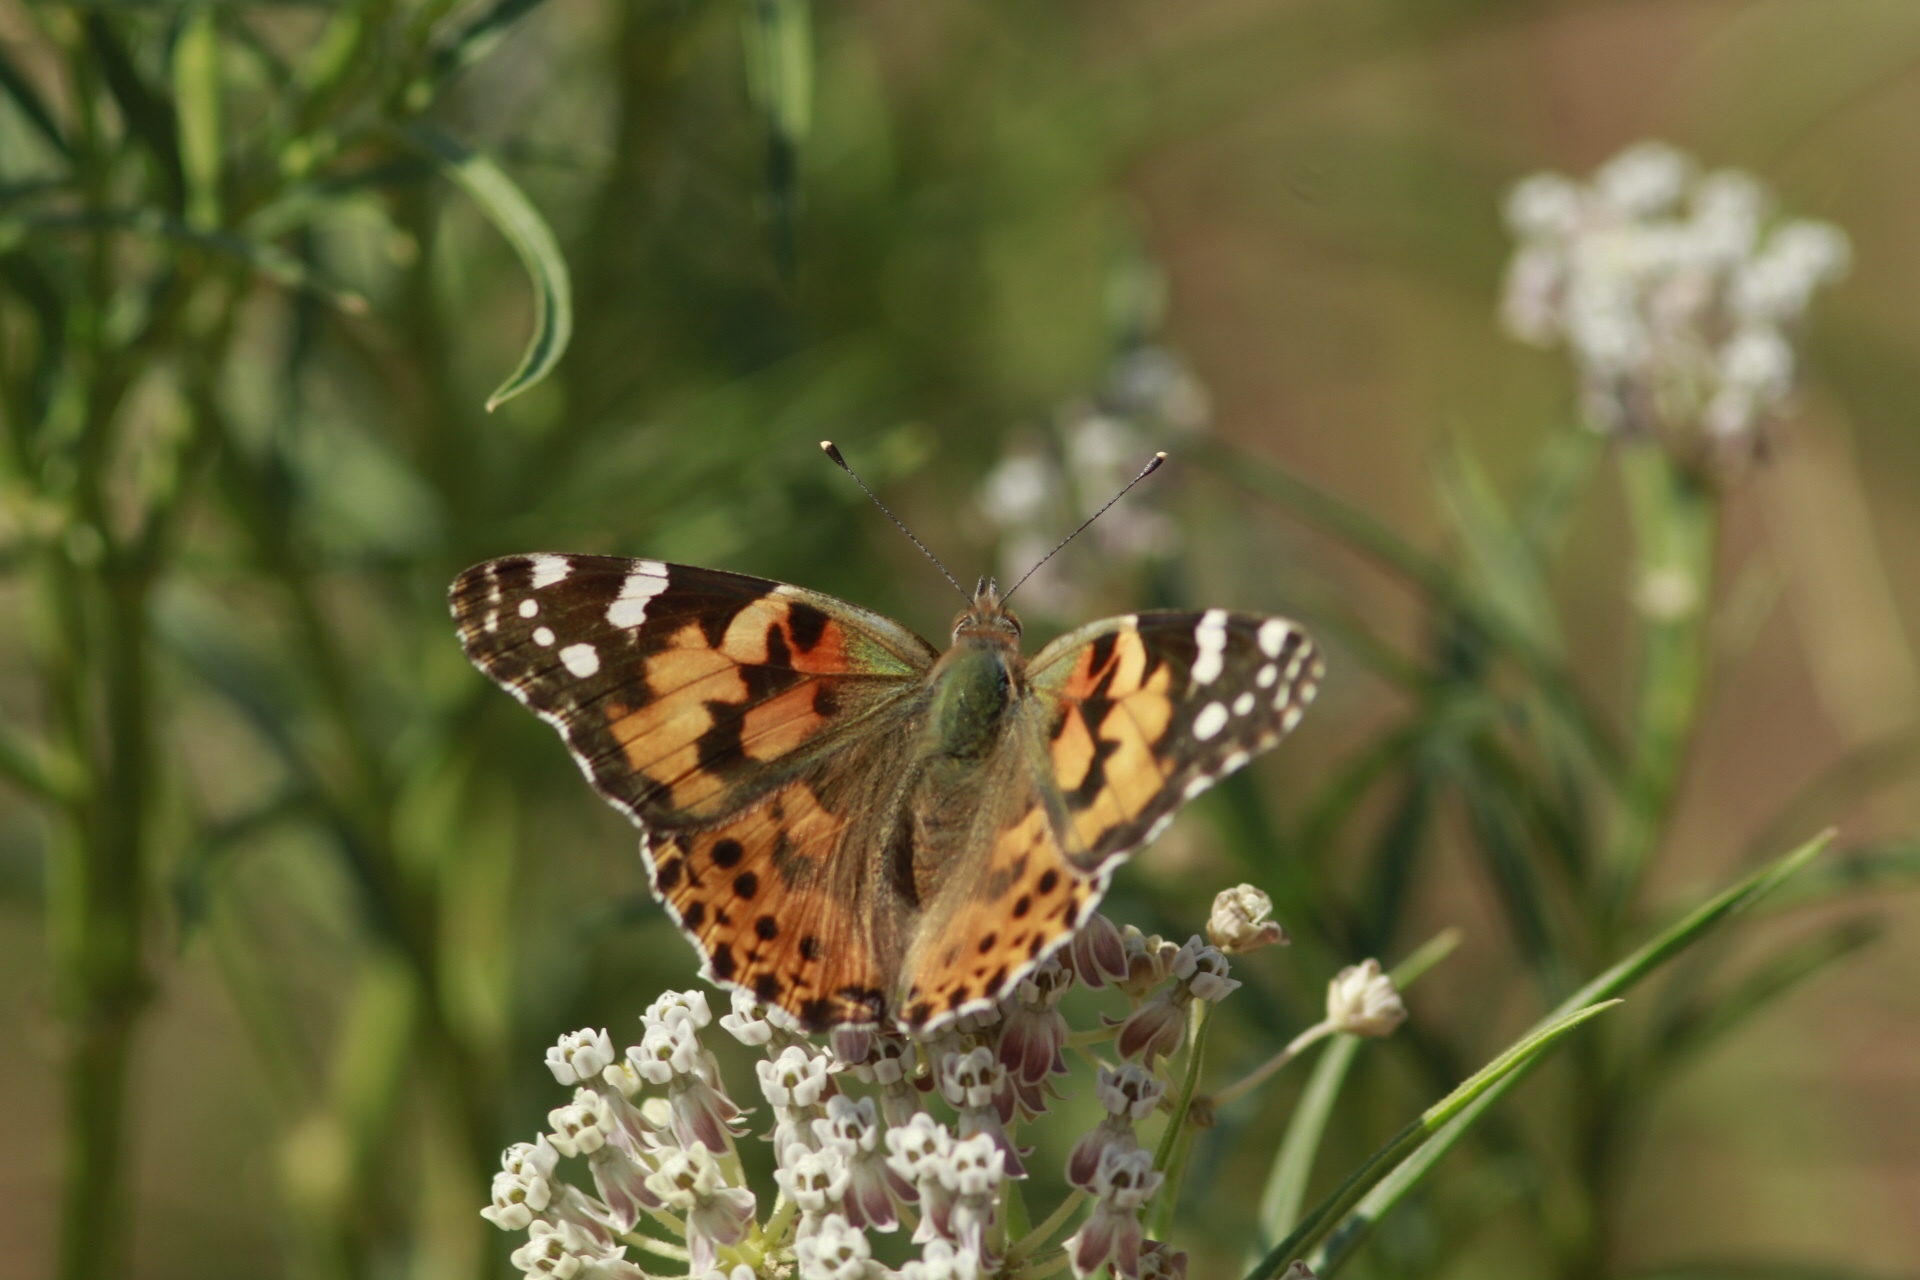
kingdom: Animalia
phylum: Arthropoda
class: Insecta
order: Lepidoptera
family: Nymphalidae
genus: Vanessa
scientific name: Vanessa cardui
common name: Painted lady
